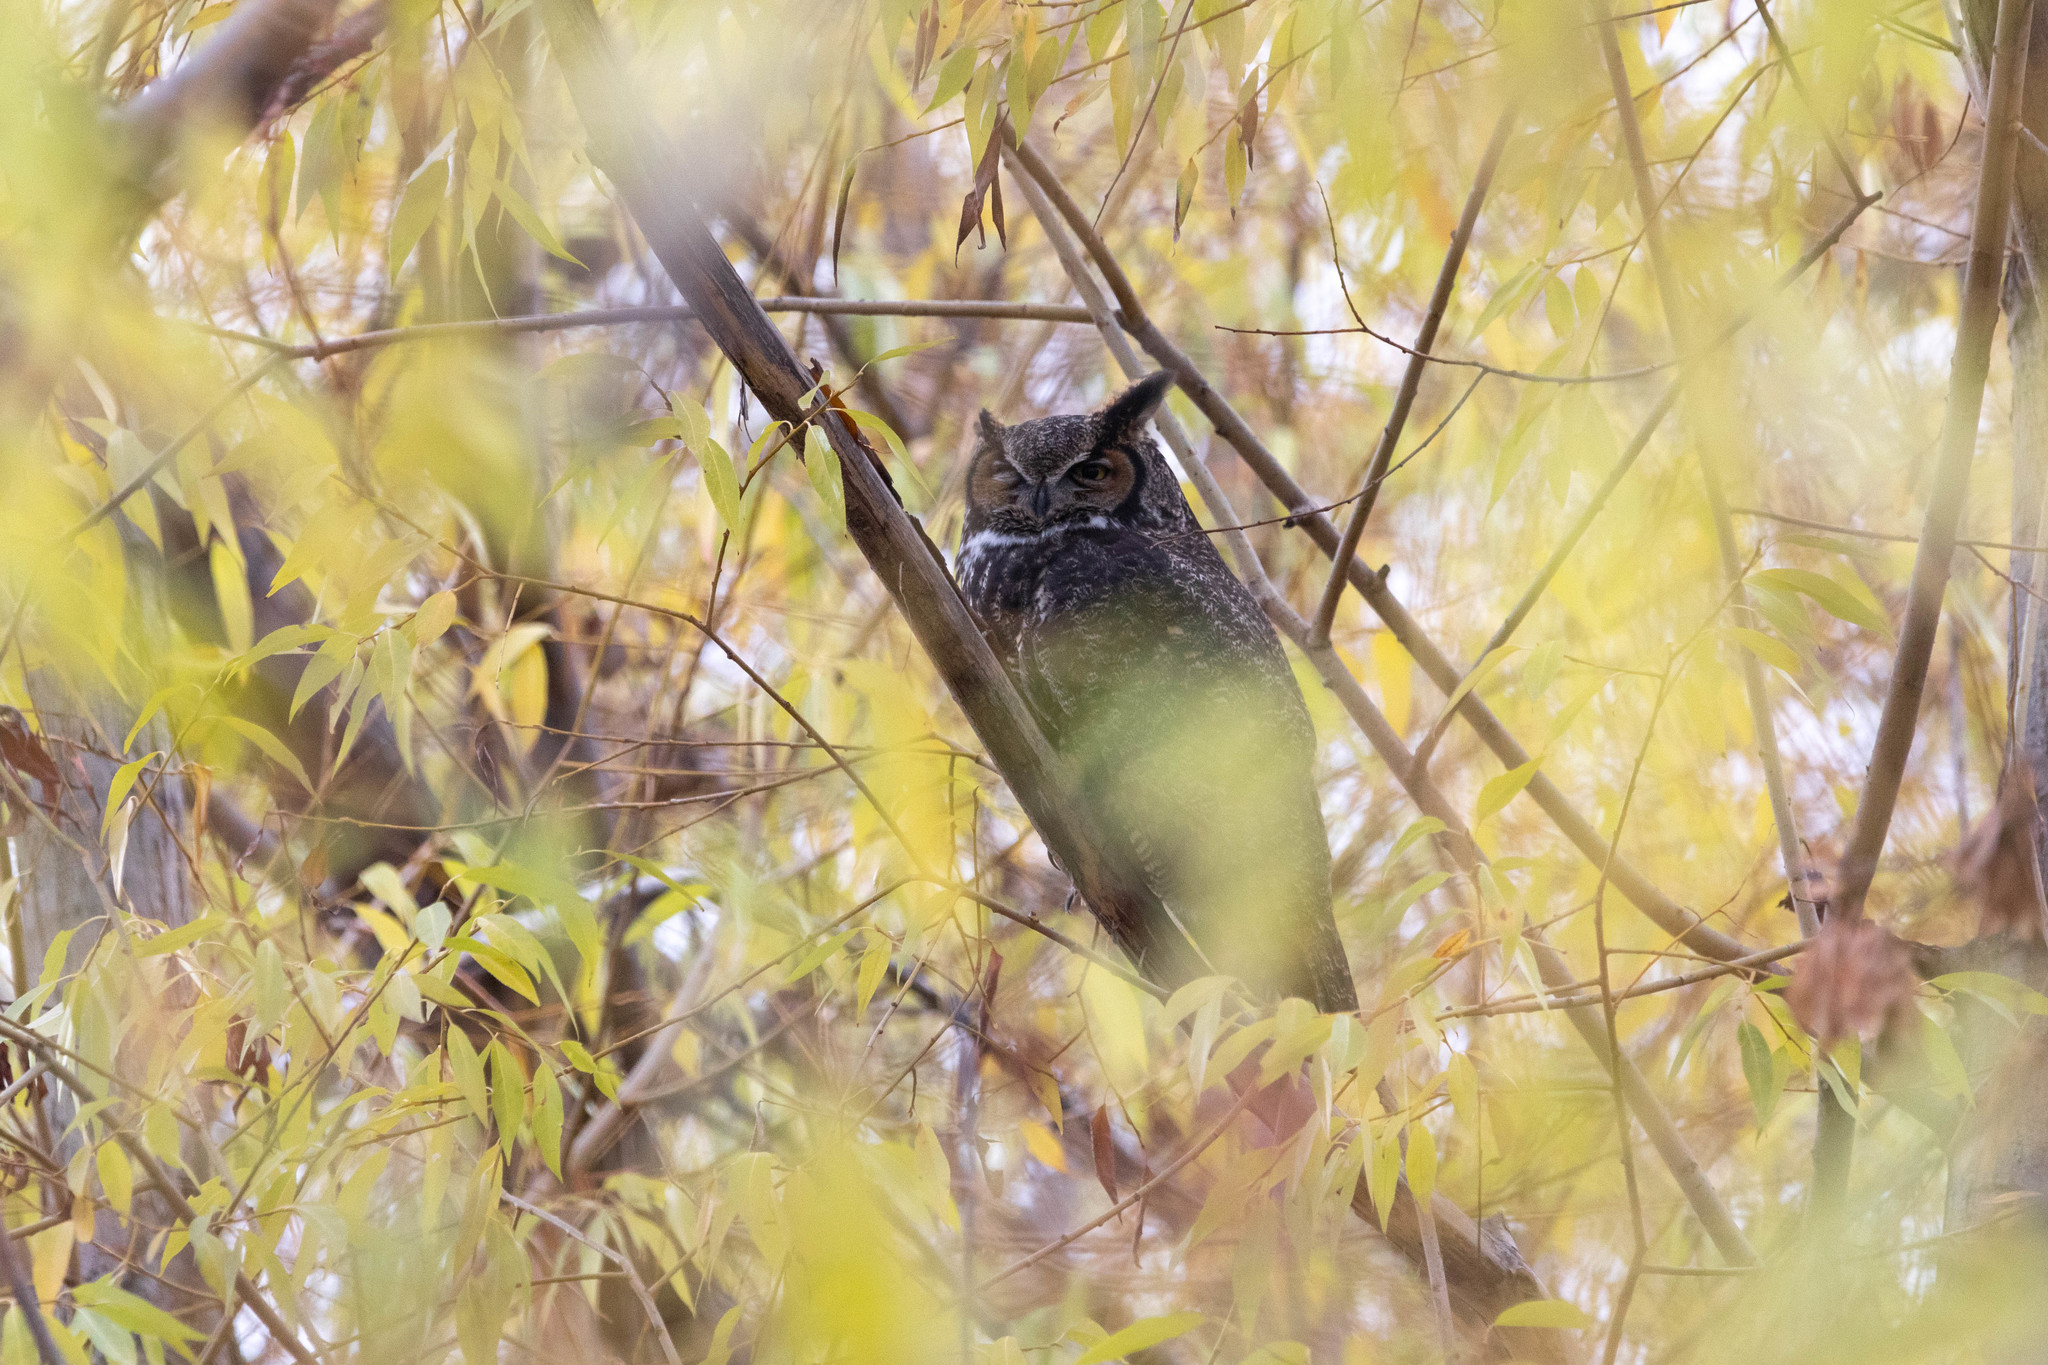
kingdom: Animalia
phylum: Chordata
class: Aves
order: Strigiformes
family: Strigidae
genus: Bubo
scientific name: Bubo virginianus
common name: Great horned owl
